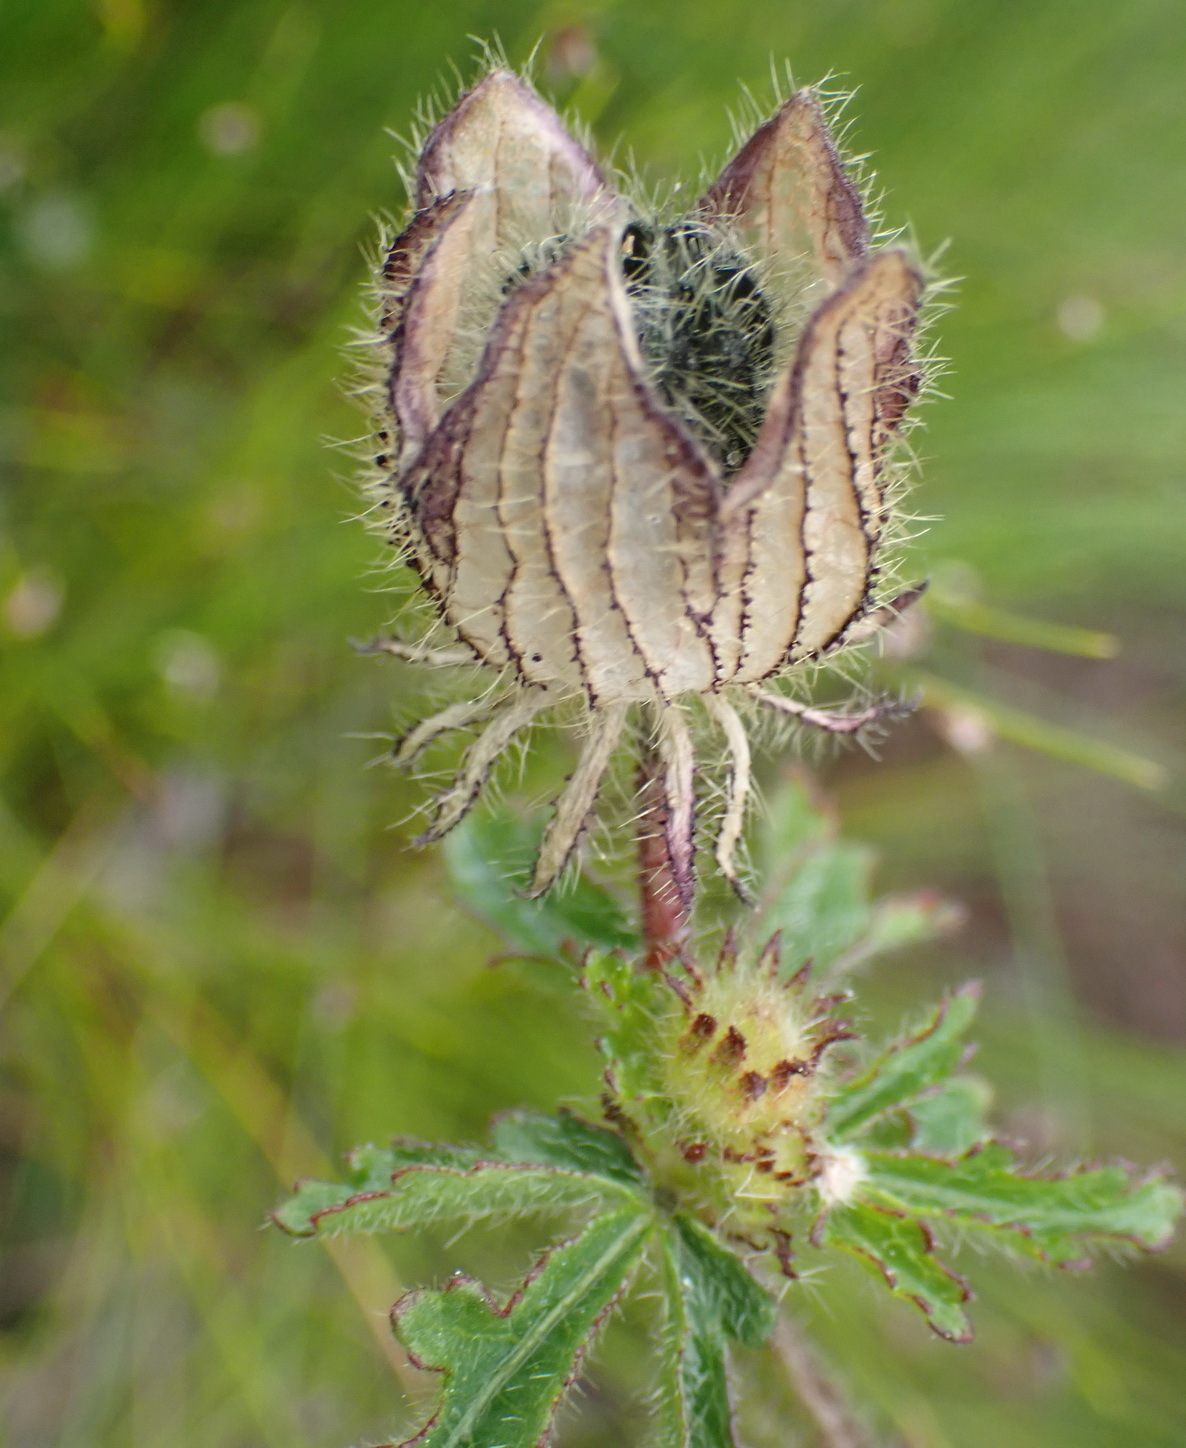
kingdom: Plantae
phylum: Tracheophyta
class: Magnoliopsida
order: Malvales
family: Malvaceae
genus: Hibiscus
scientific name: Hibiscus trionum
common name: Bladder ketmia
